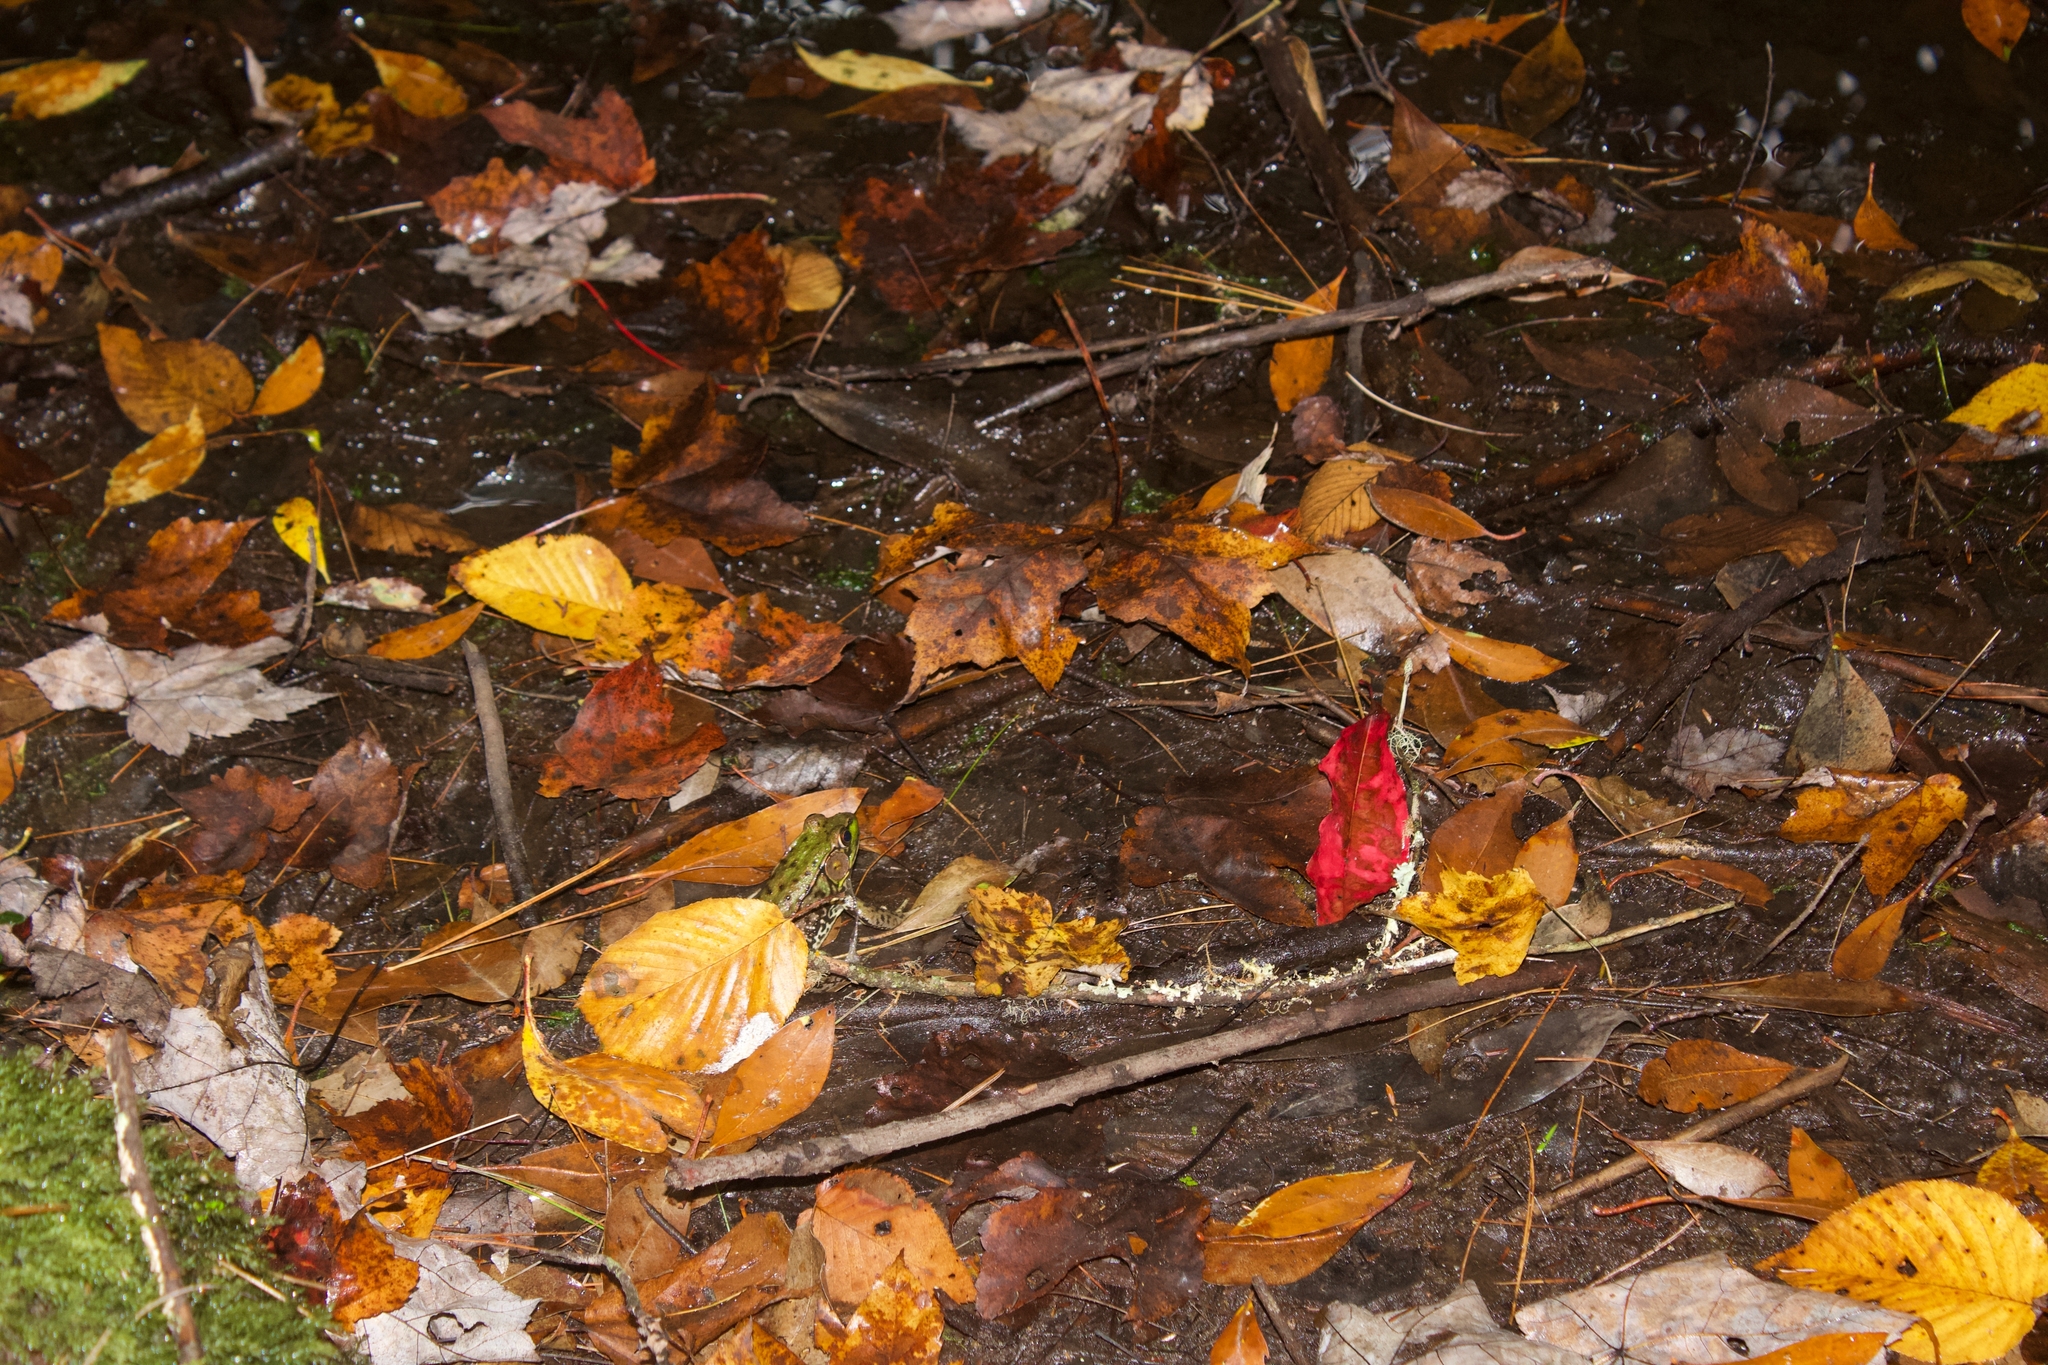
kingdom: Animalia
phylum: Chordata
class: Amphibia
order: Anura
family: Ranidae
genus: Lithobates
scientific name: Lithobates clamitans
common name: Green frog
